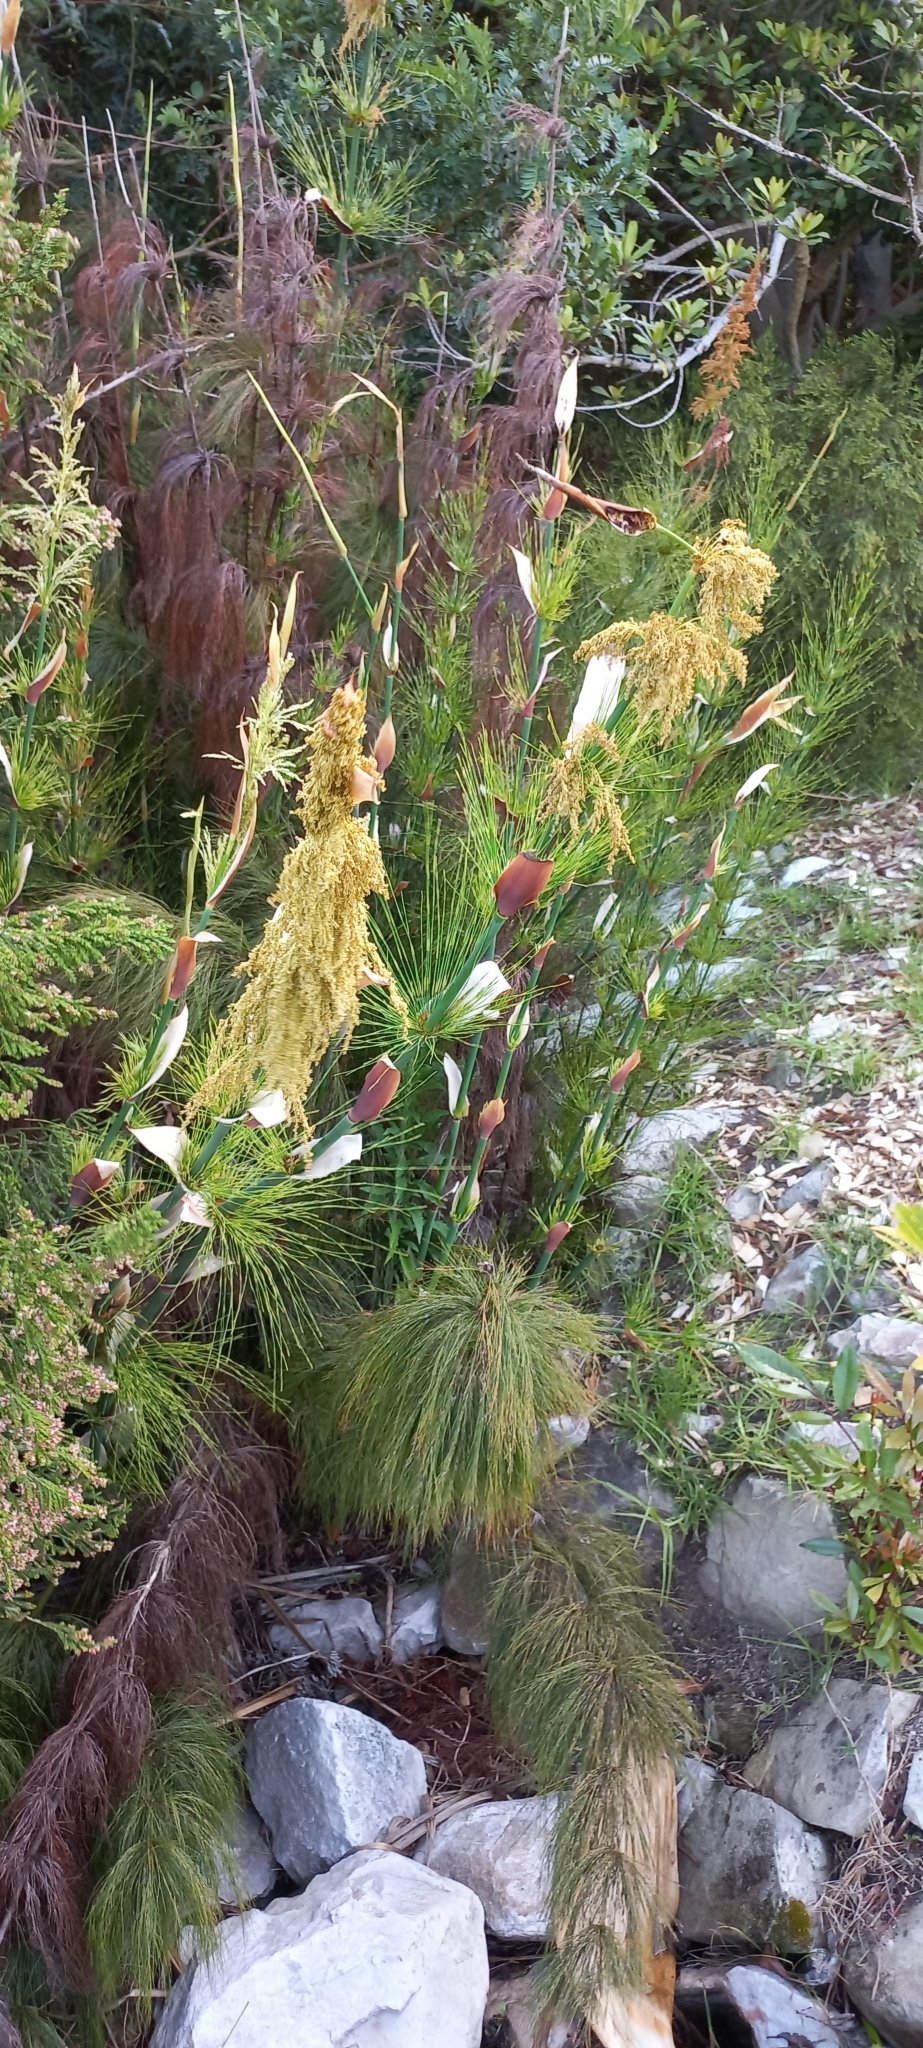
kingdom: Plantae
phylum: Tracheophyta
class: Liliopsida
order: Poales
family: Restionaceae
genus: Elegia
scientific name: Elegia capensis
